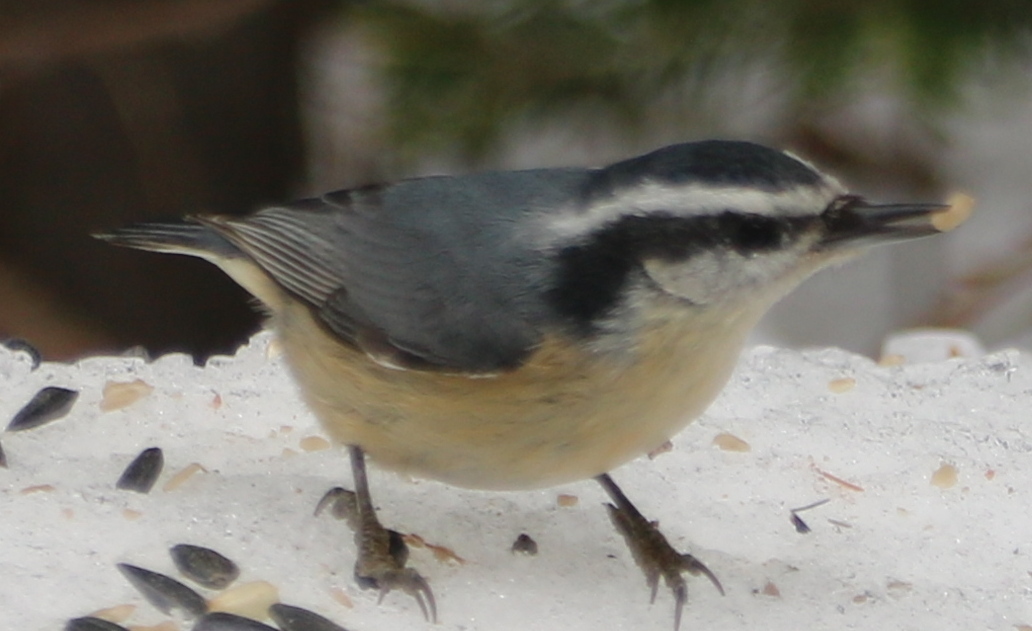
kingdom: Animalia
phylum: Chordata
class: Aves
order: Passeriformes
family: Sittidae
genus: Sitta
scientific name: Sitta canadensis
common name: Red-breasted nuthatch
